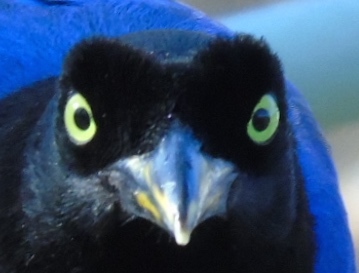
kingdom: Animalia
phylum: Chordata
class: Aves
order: Passeriformes
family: Corvidae
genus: Cyanocorax
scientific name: Cyanocorax beecheii
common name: Purplish-backed jay
